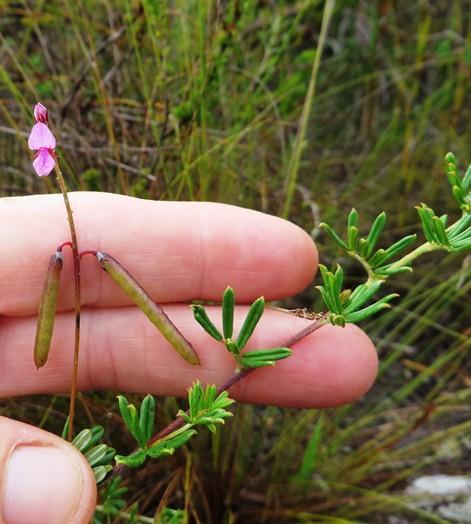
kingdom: Plantae
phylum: Tracheophyta
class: Magnoliopsida
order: Fabales
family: Fabaceae
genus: Indigofera
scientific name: Indigofera angustifolia
